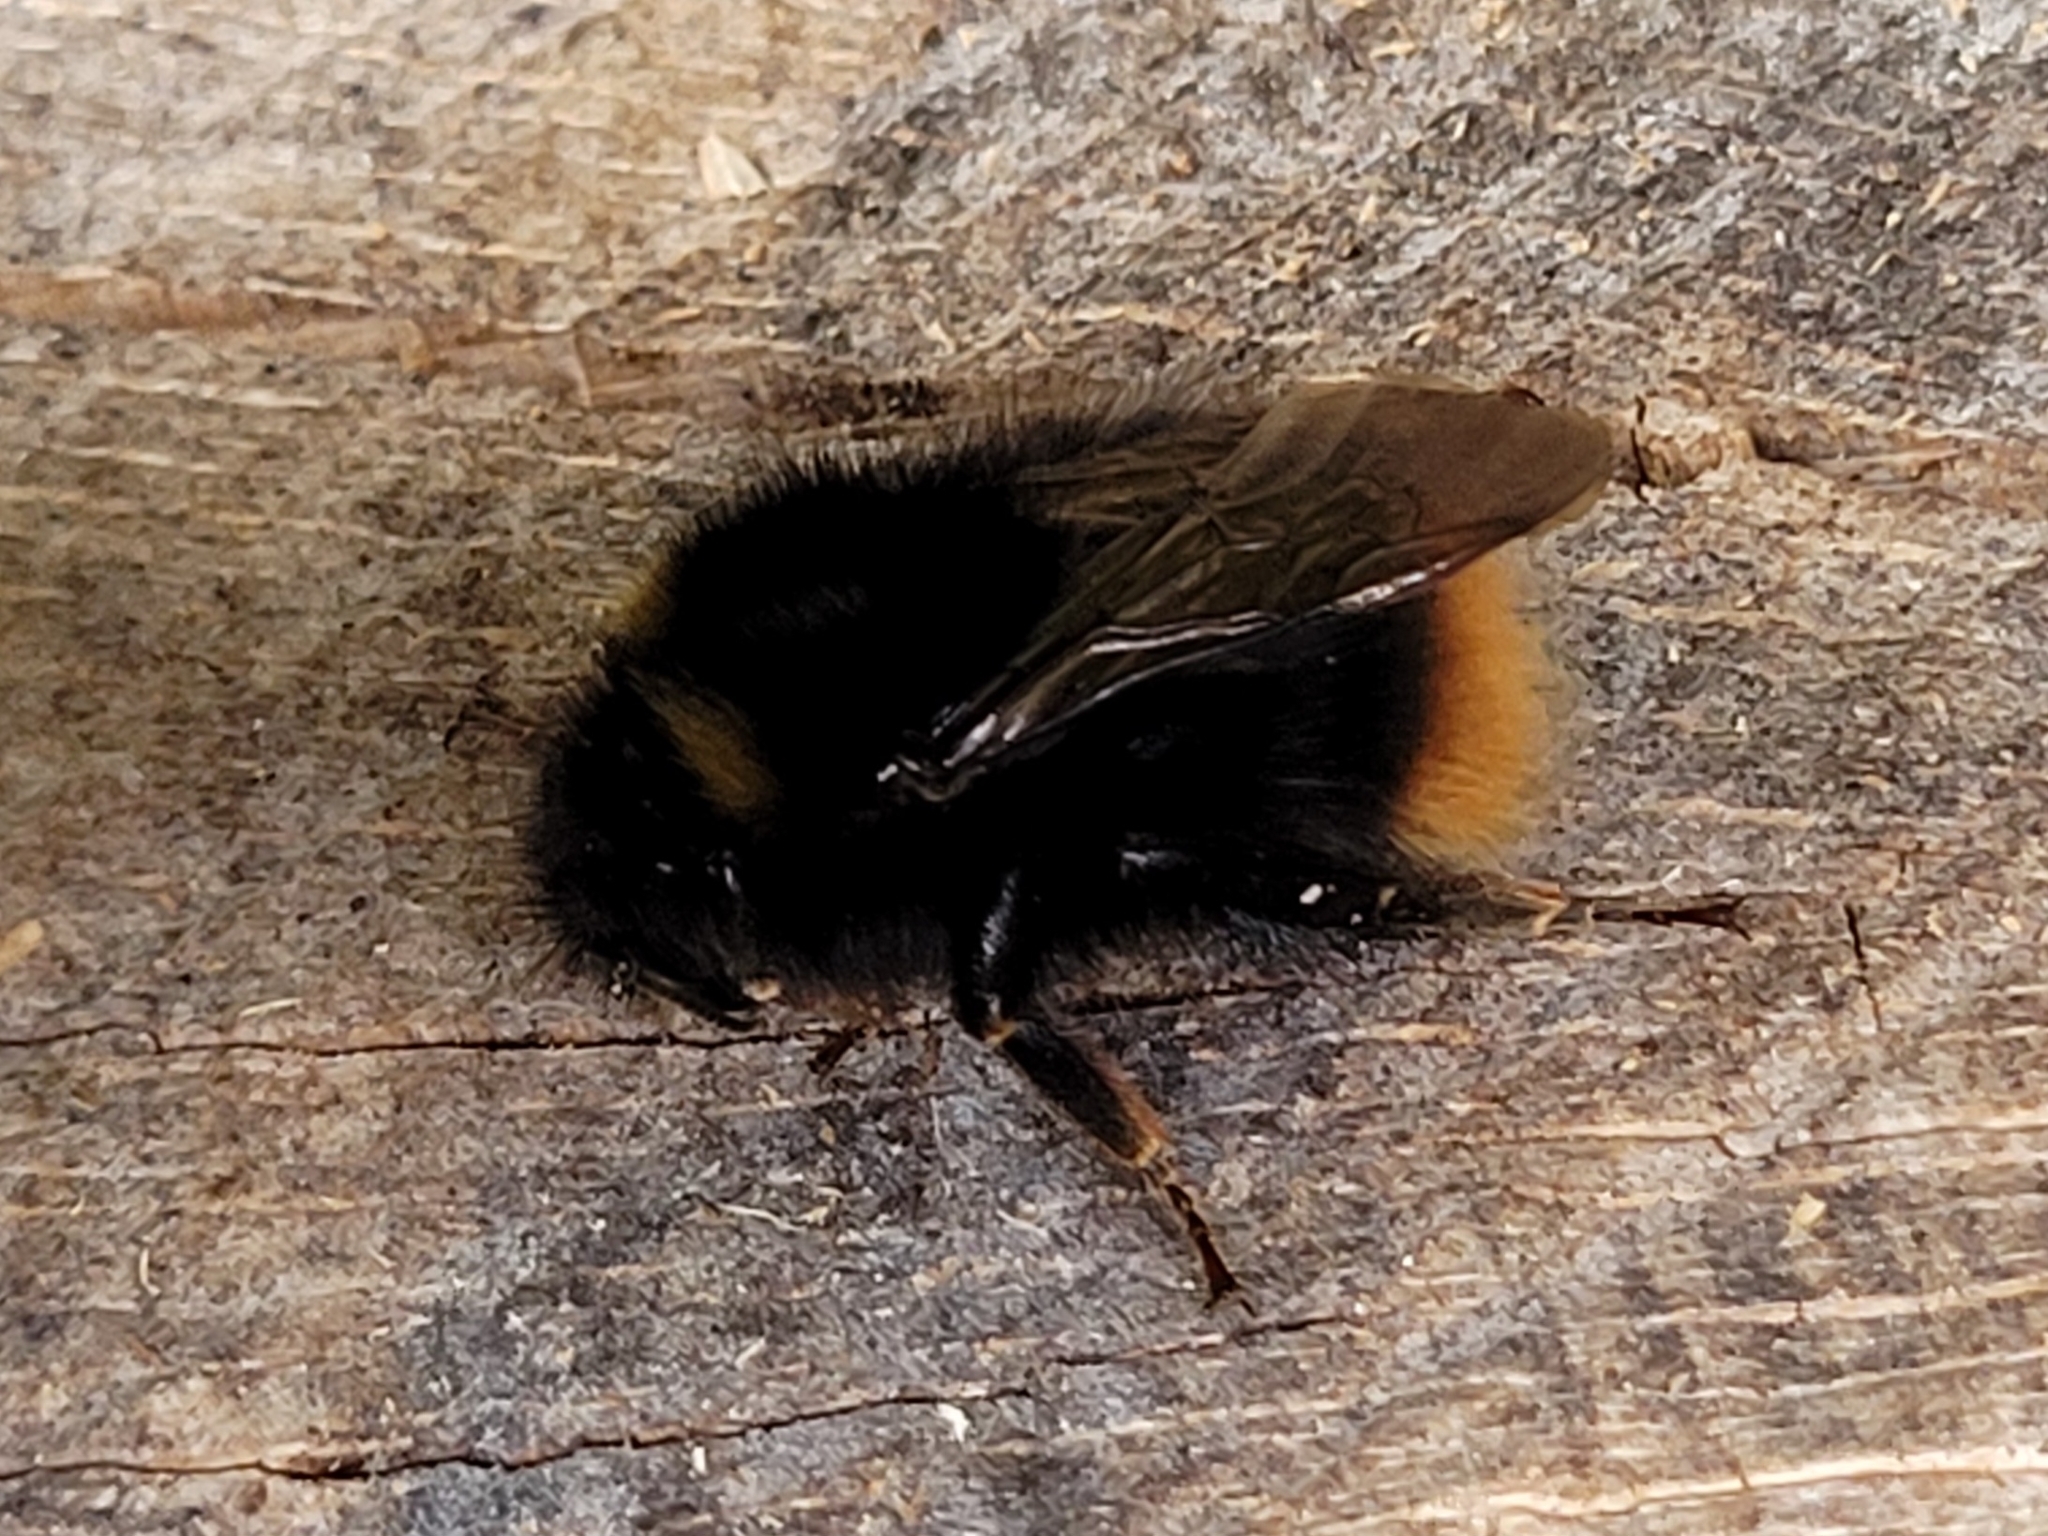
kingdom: Animalia
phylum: Arthropoda
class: Insecta
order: Hymenoptera
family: Apidae
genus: Bombus
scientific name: Bombus pratorum
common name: Early humble-bee
